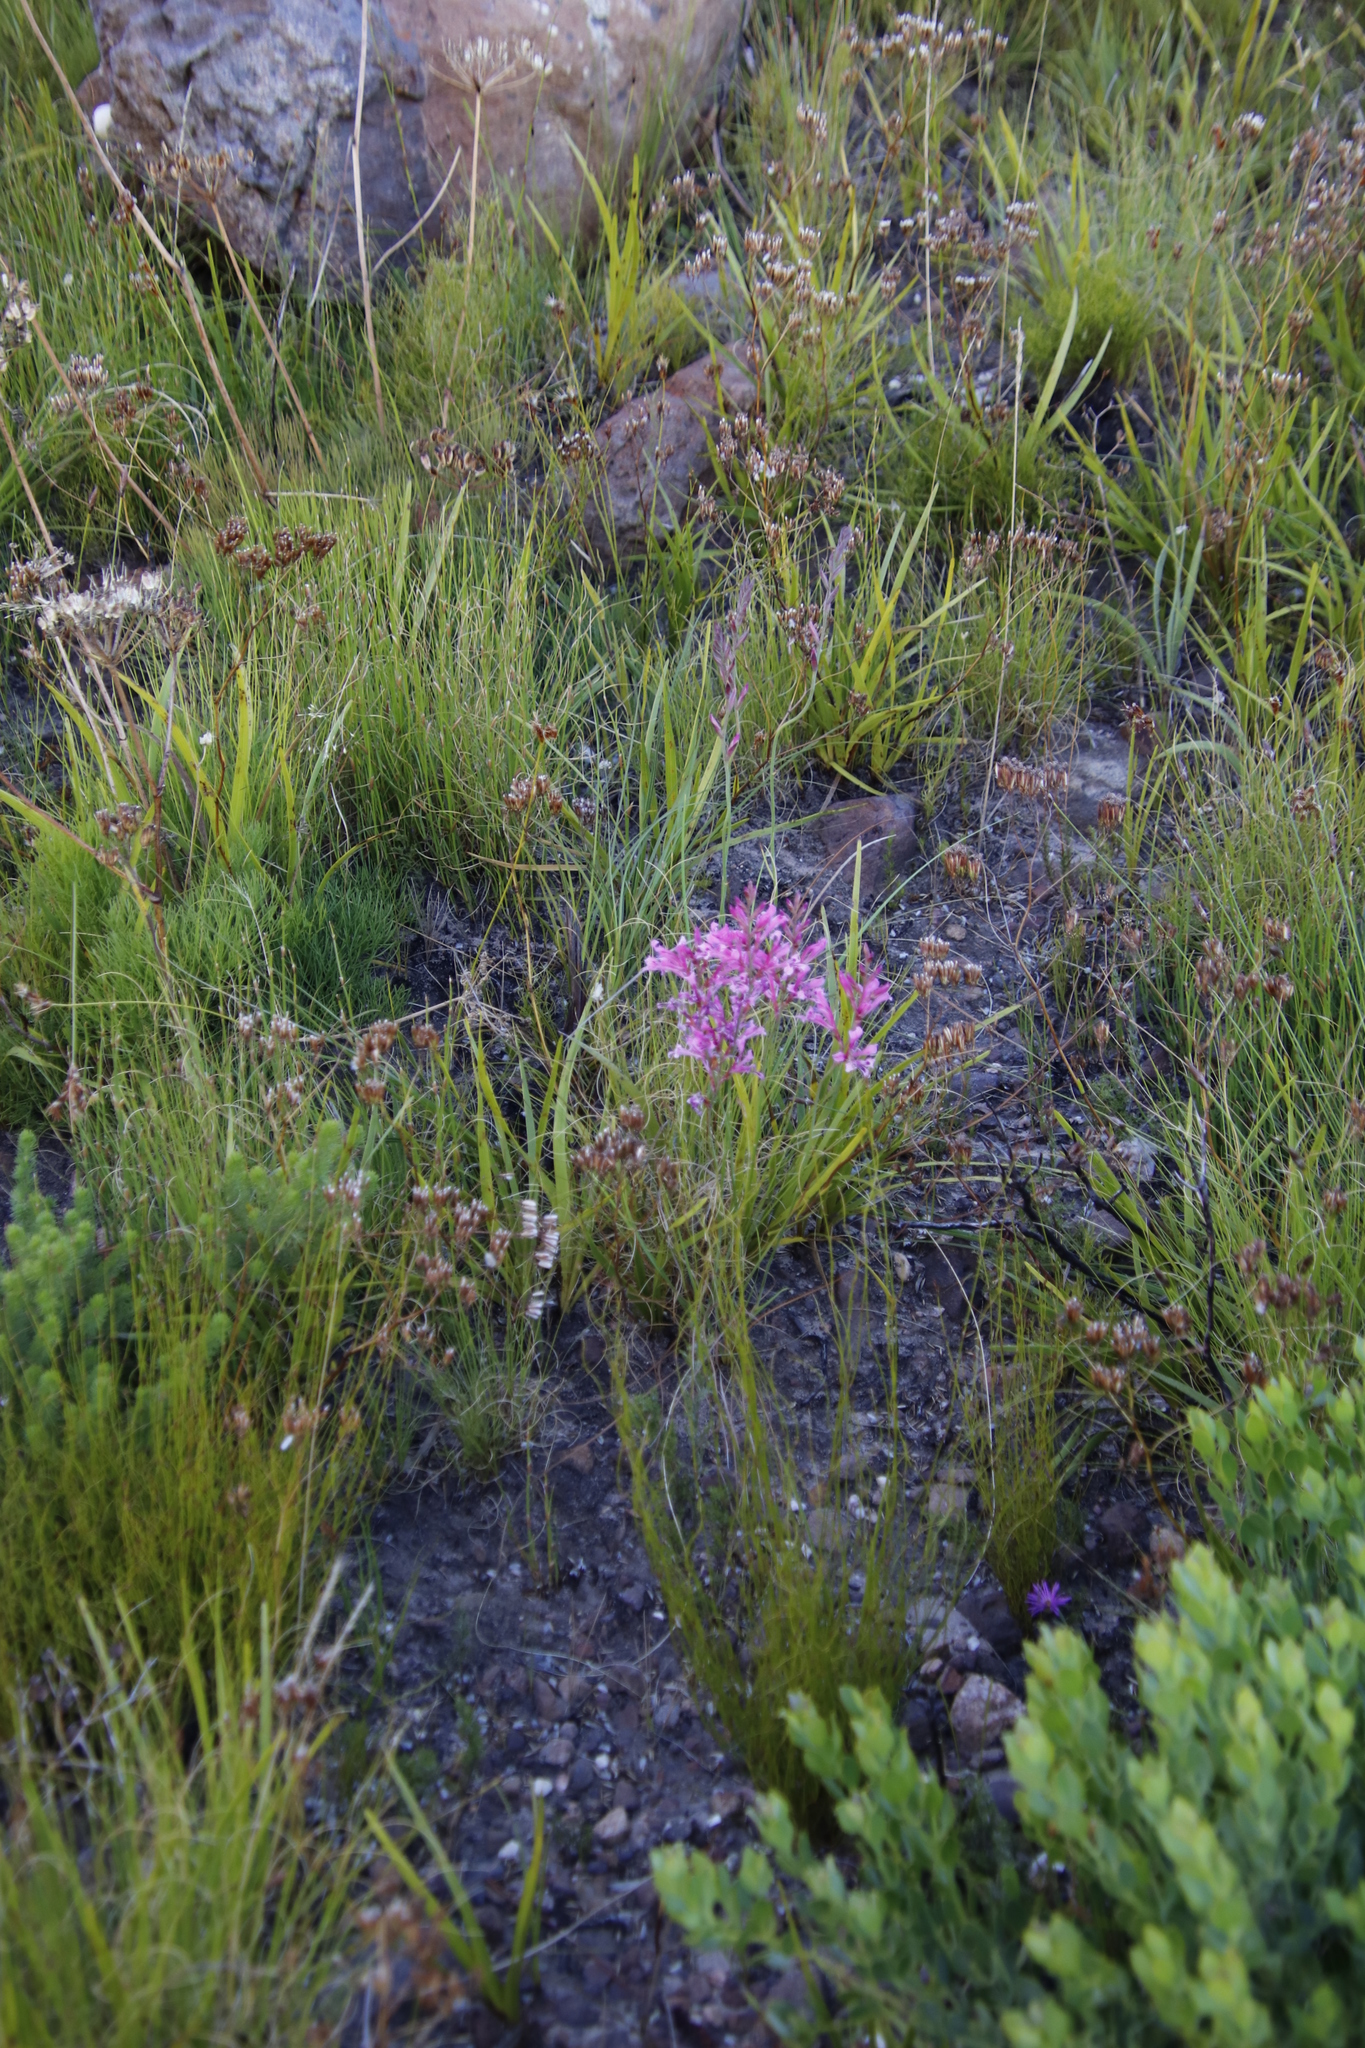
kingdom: Plantae
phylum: Tracheophyta
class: Liliopsida
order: Asparagales
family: Iridaceae
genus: Tritoniopsis
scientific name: Tritoniopsis lata
